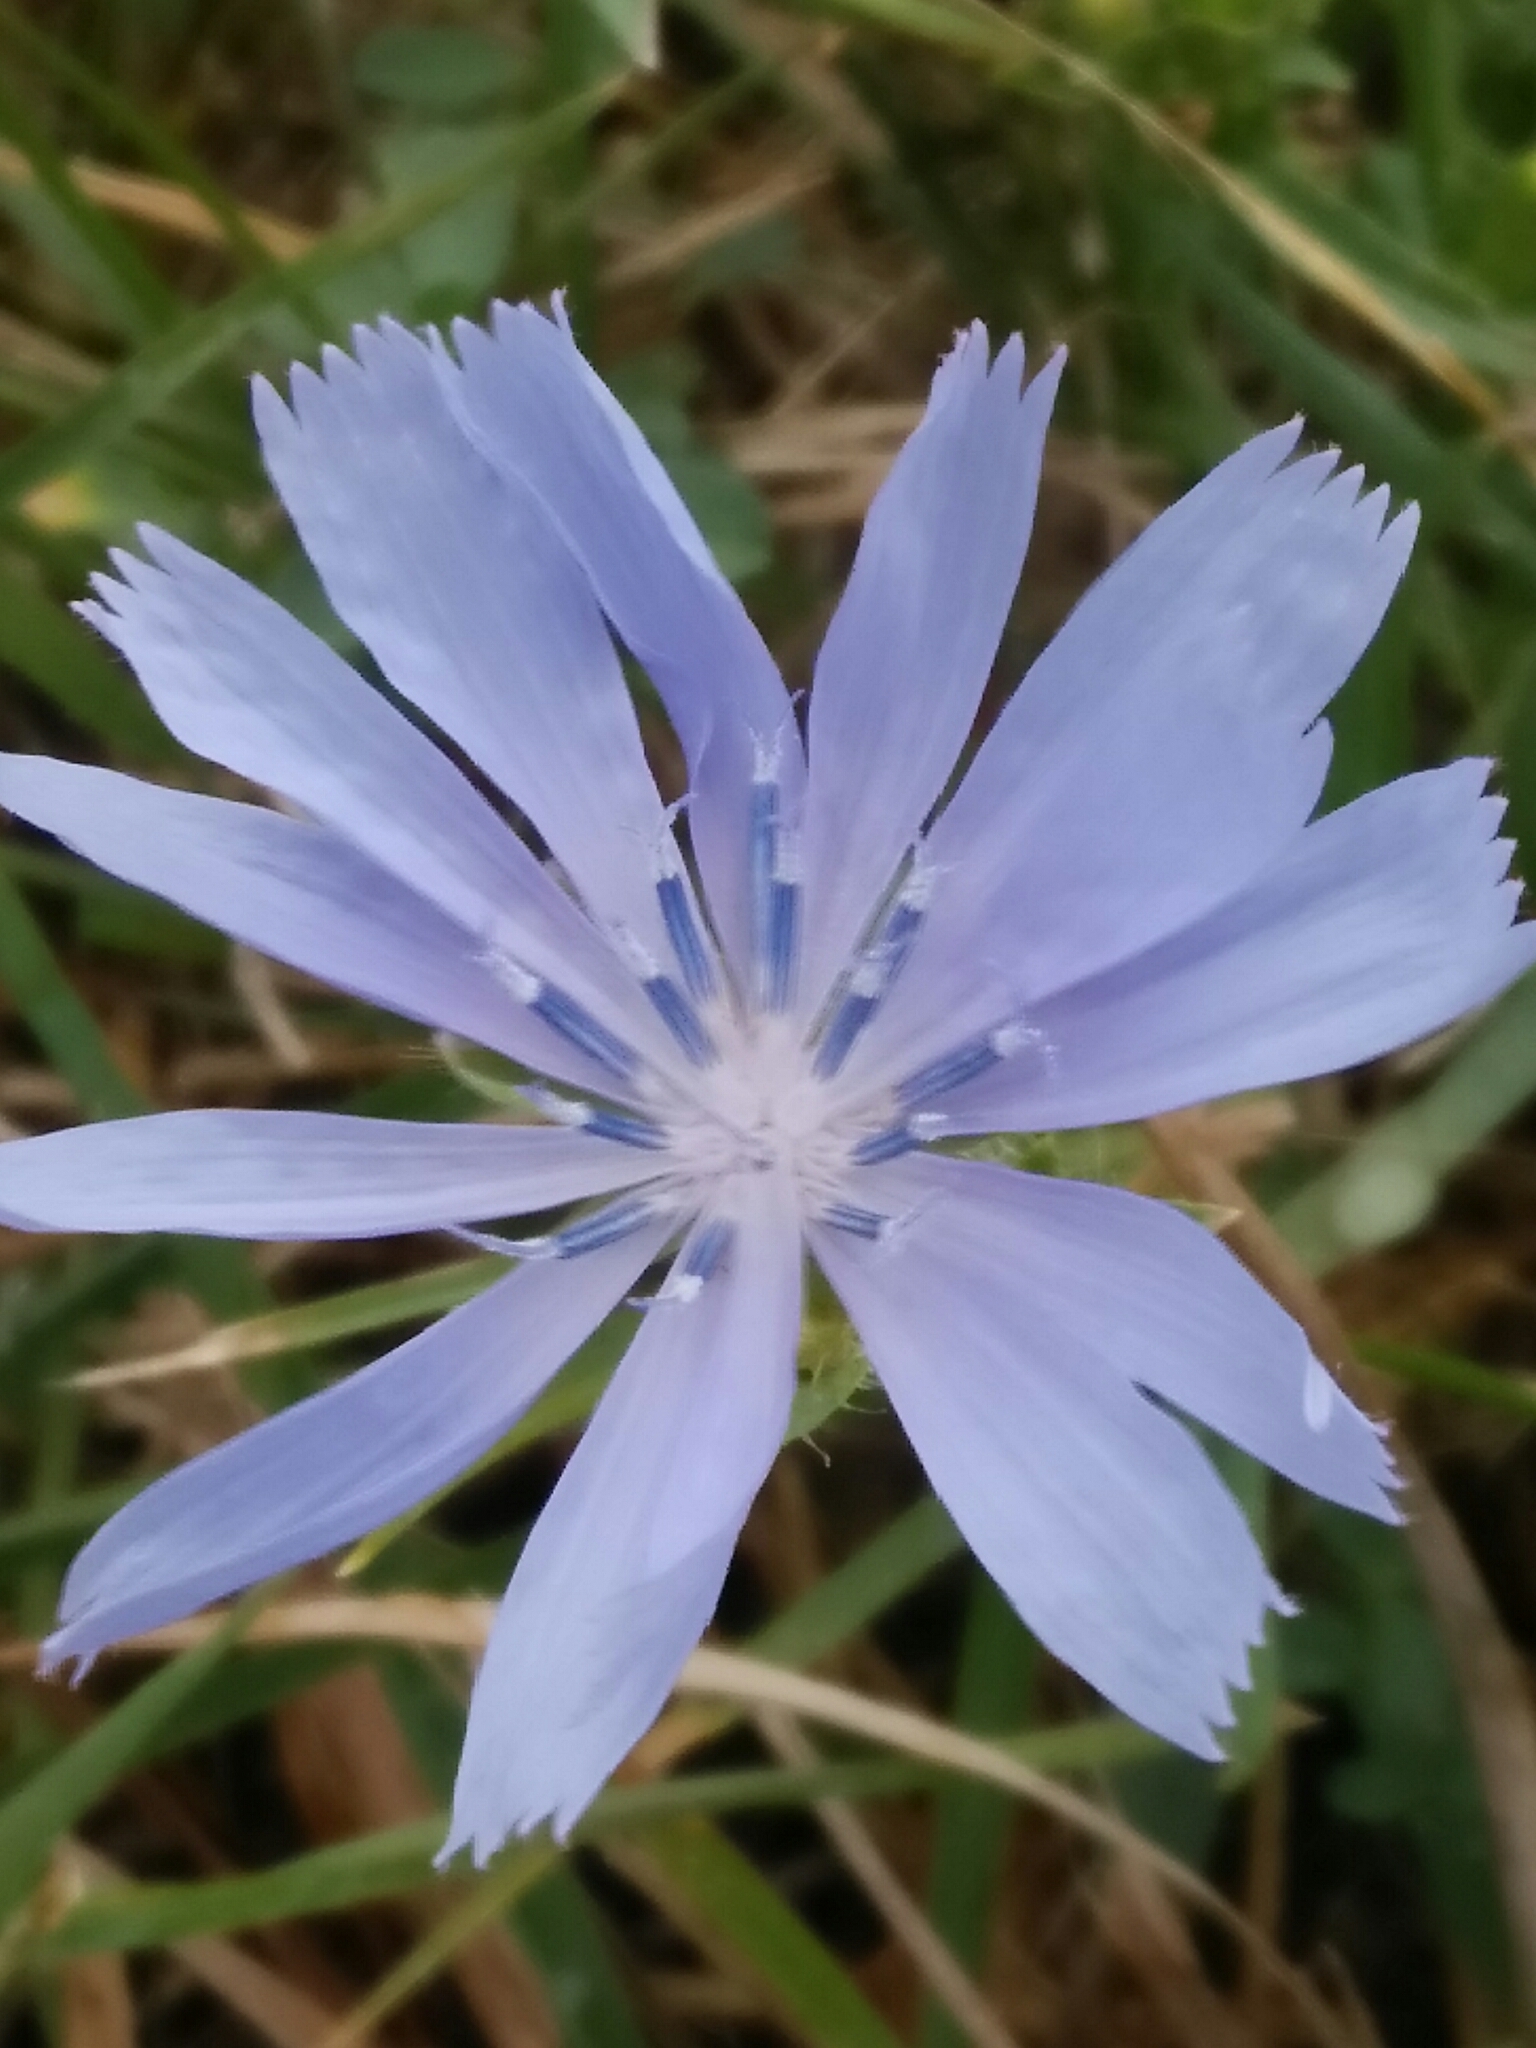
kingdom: Plantae
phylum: Tracheophyta
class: Magnoliopsida
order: Asterales
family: Asteraceae
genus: Cichorium
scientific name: Cichorium intybus
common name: Chicory
